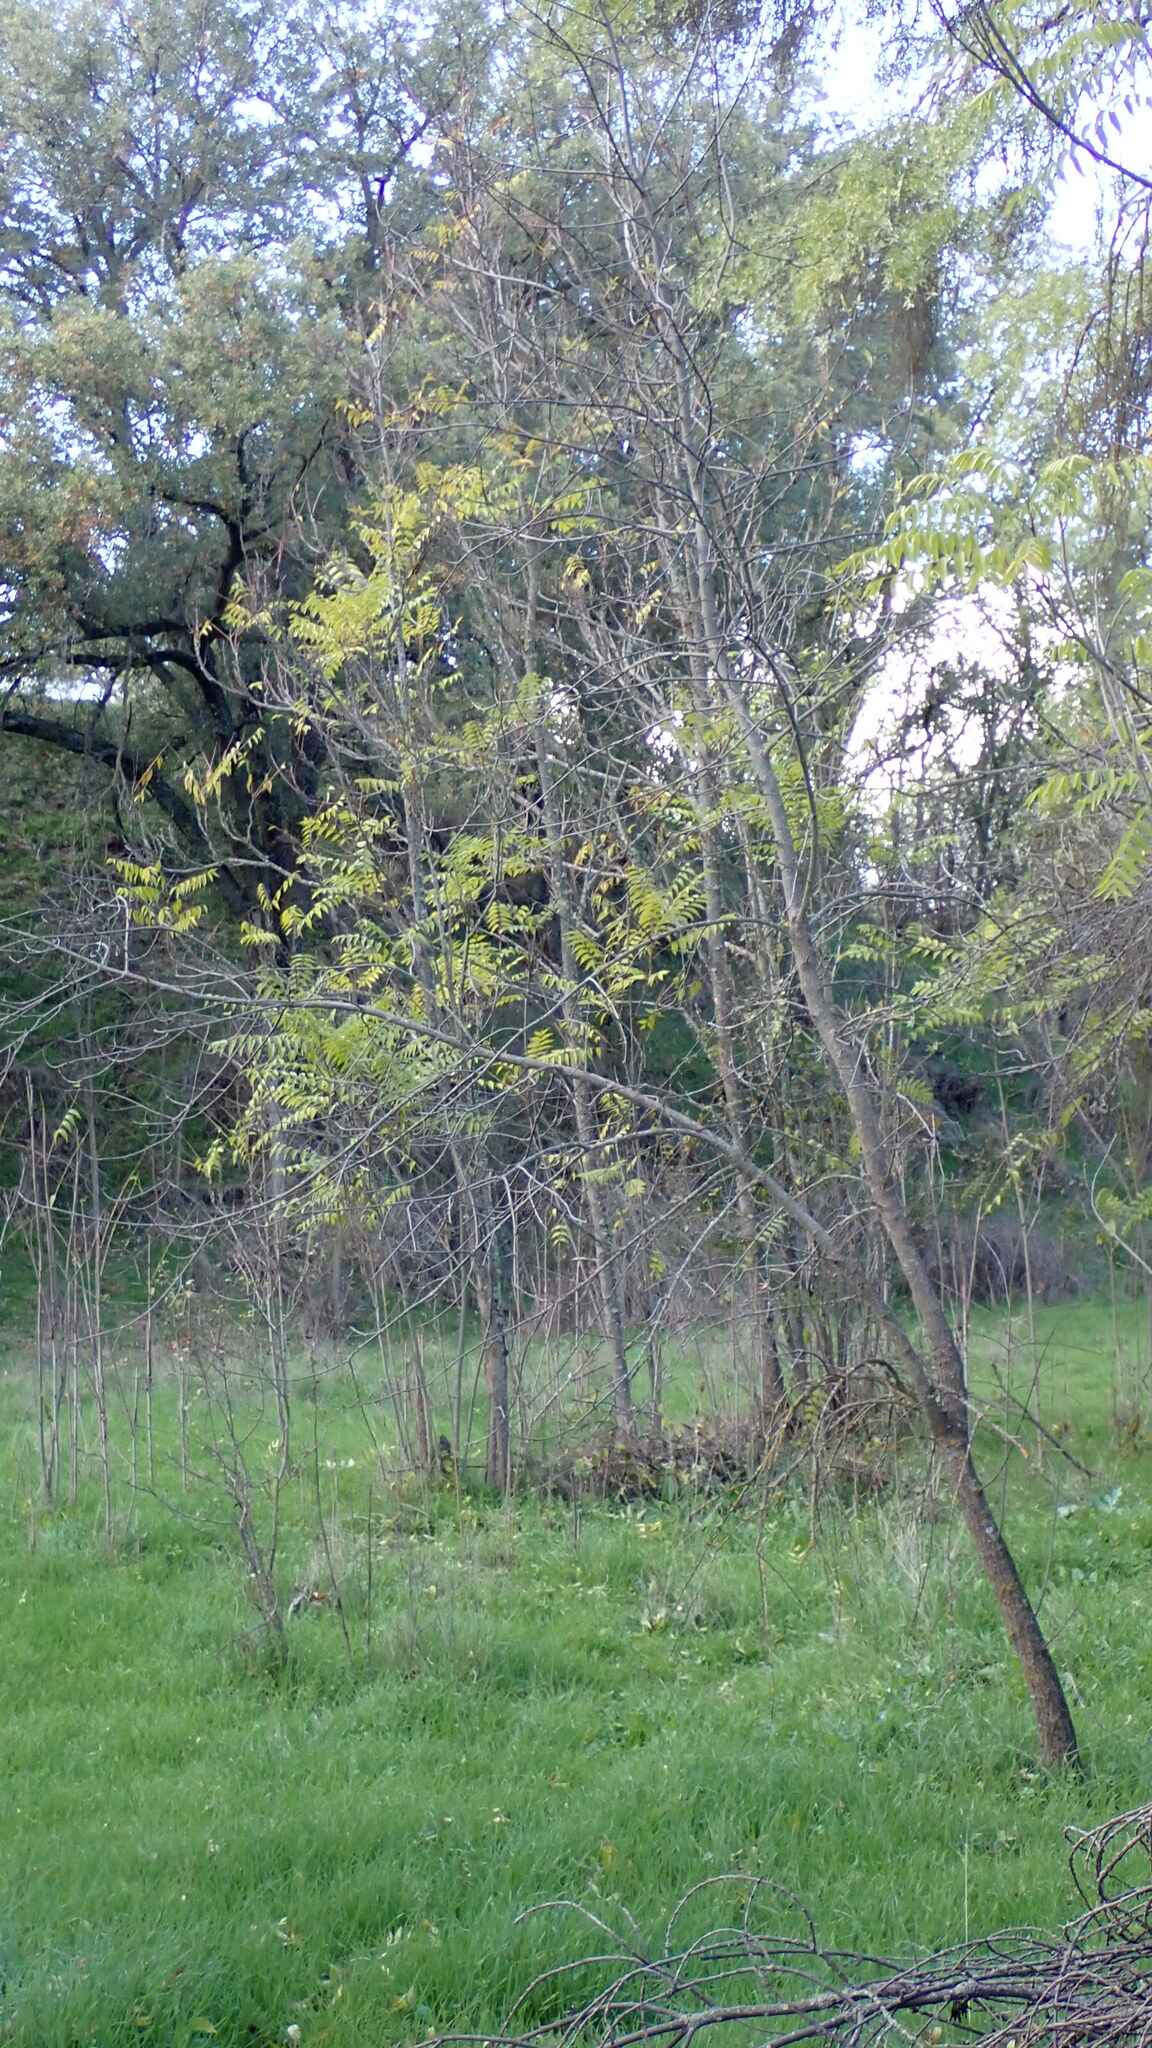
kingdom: Plantae
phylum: Tracheophyta
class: Magnoliopsida
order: Sapindales
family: Simaroubaceae
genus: Ailanthus
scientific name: Ailanthus altissima
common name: Tree-of-heaven
